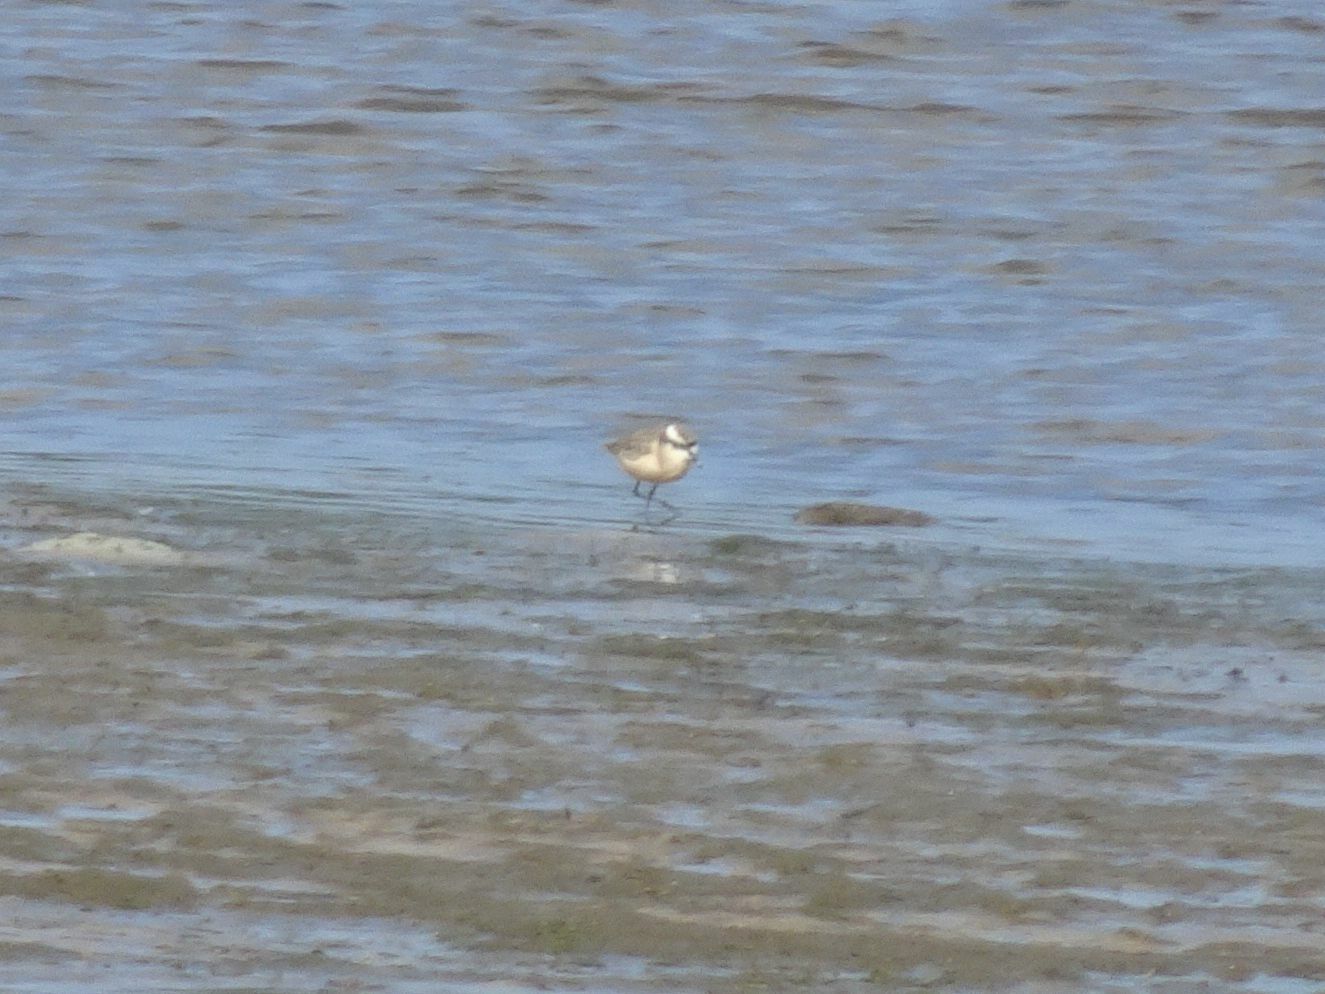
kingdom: Animalia
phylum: Chordata
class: Aves
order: Charadriiformes
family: Charadriidae
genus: Anarhynchus
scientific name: Anarhynchus
